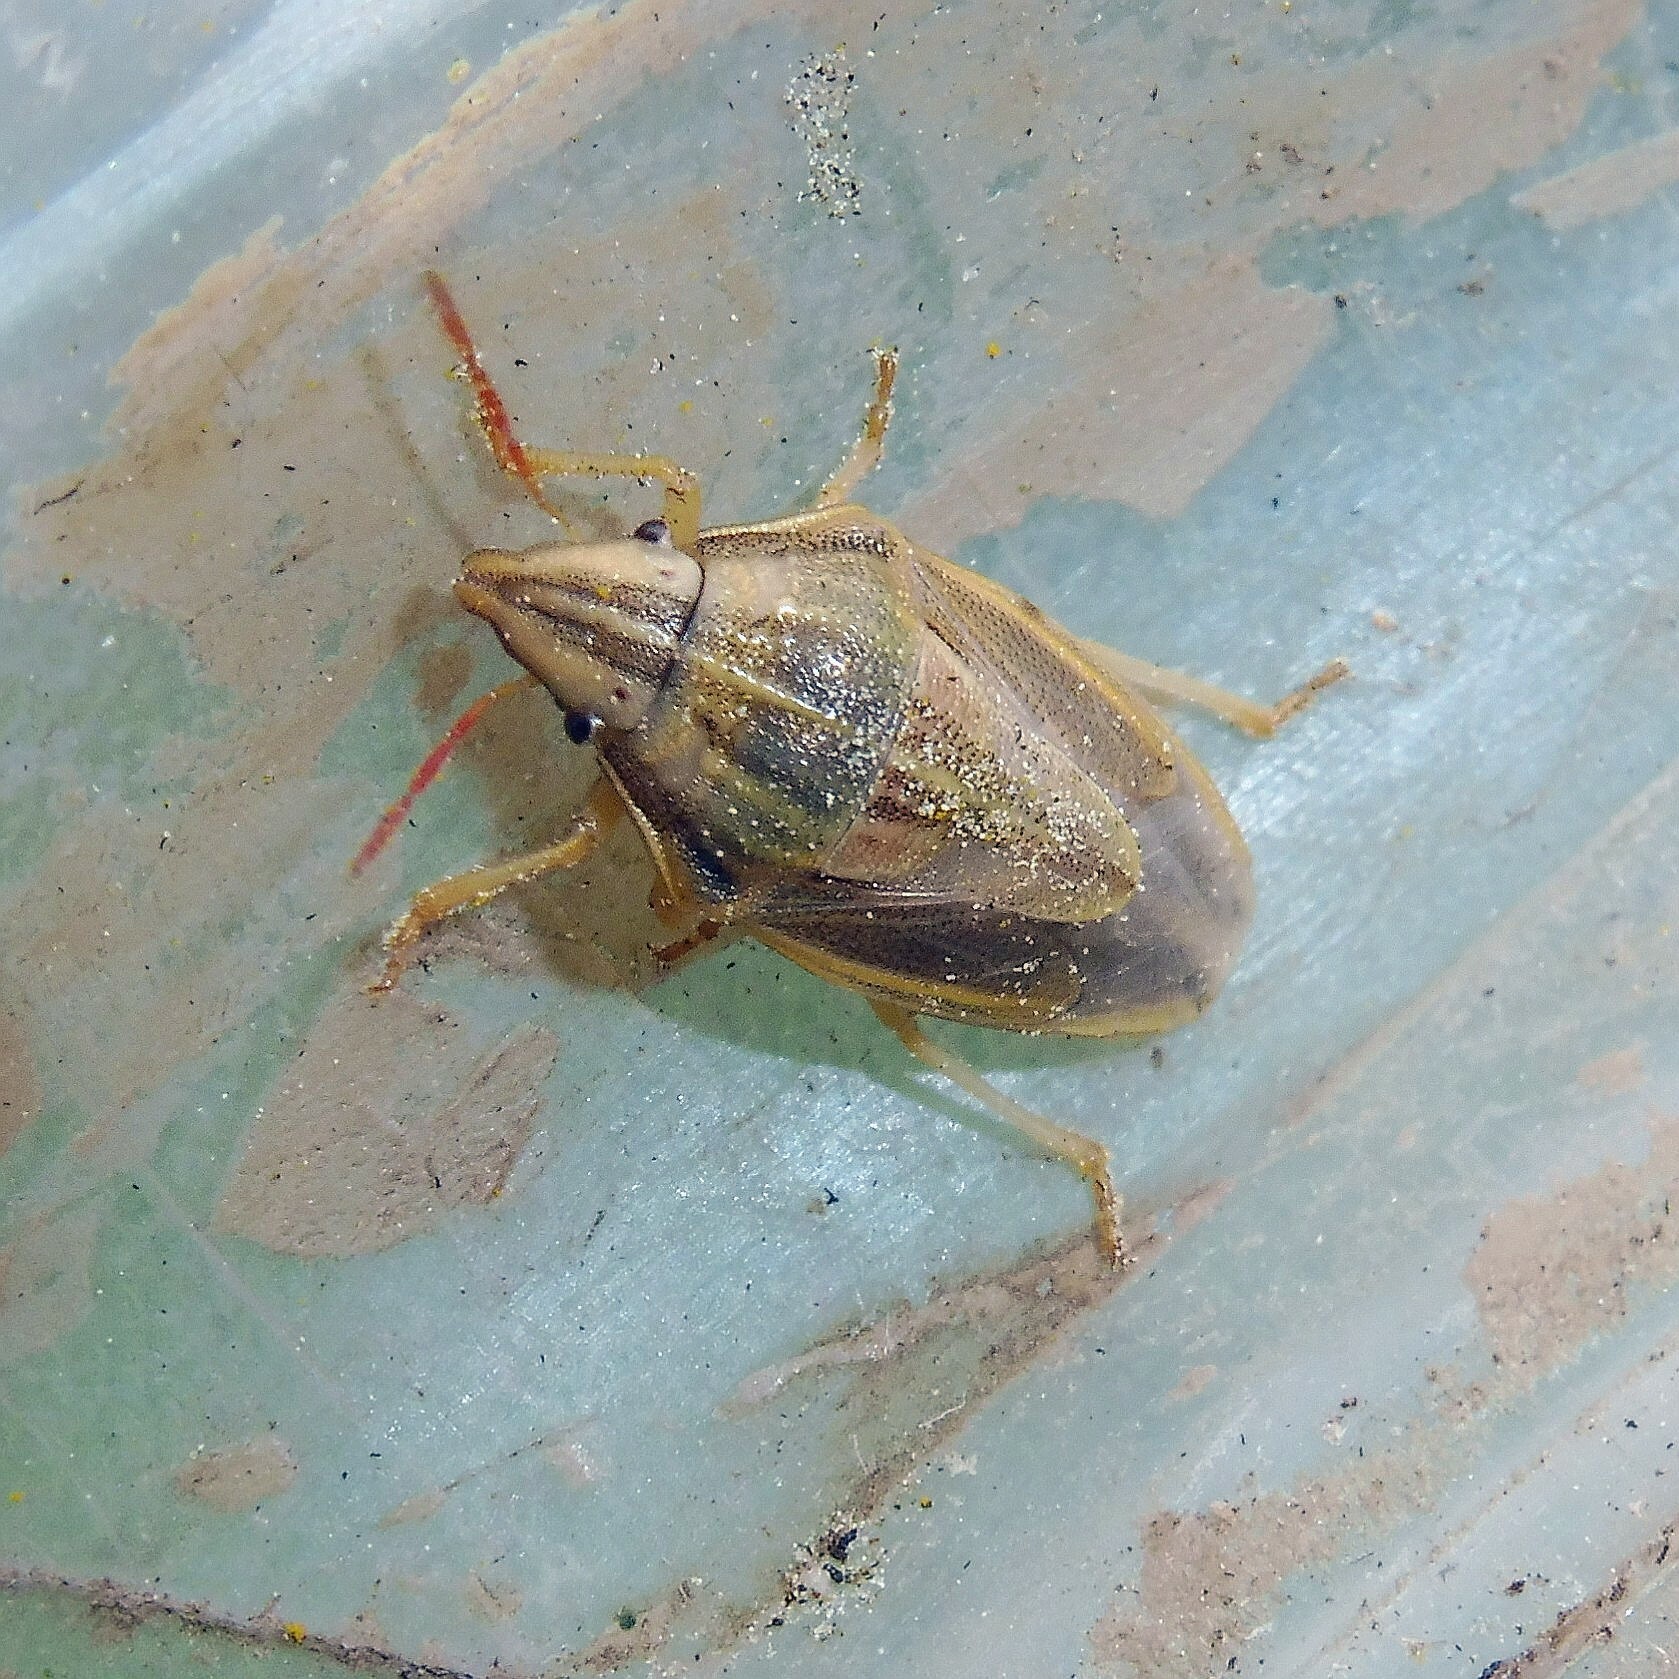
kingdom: Animalia
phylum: Arthropoda
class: Insecta
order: Hemiptera
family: Pentatomidae
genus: Aelia
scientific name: Aelia acuminata
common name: Bishop's mitre
